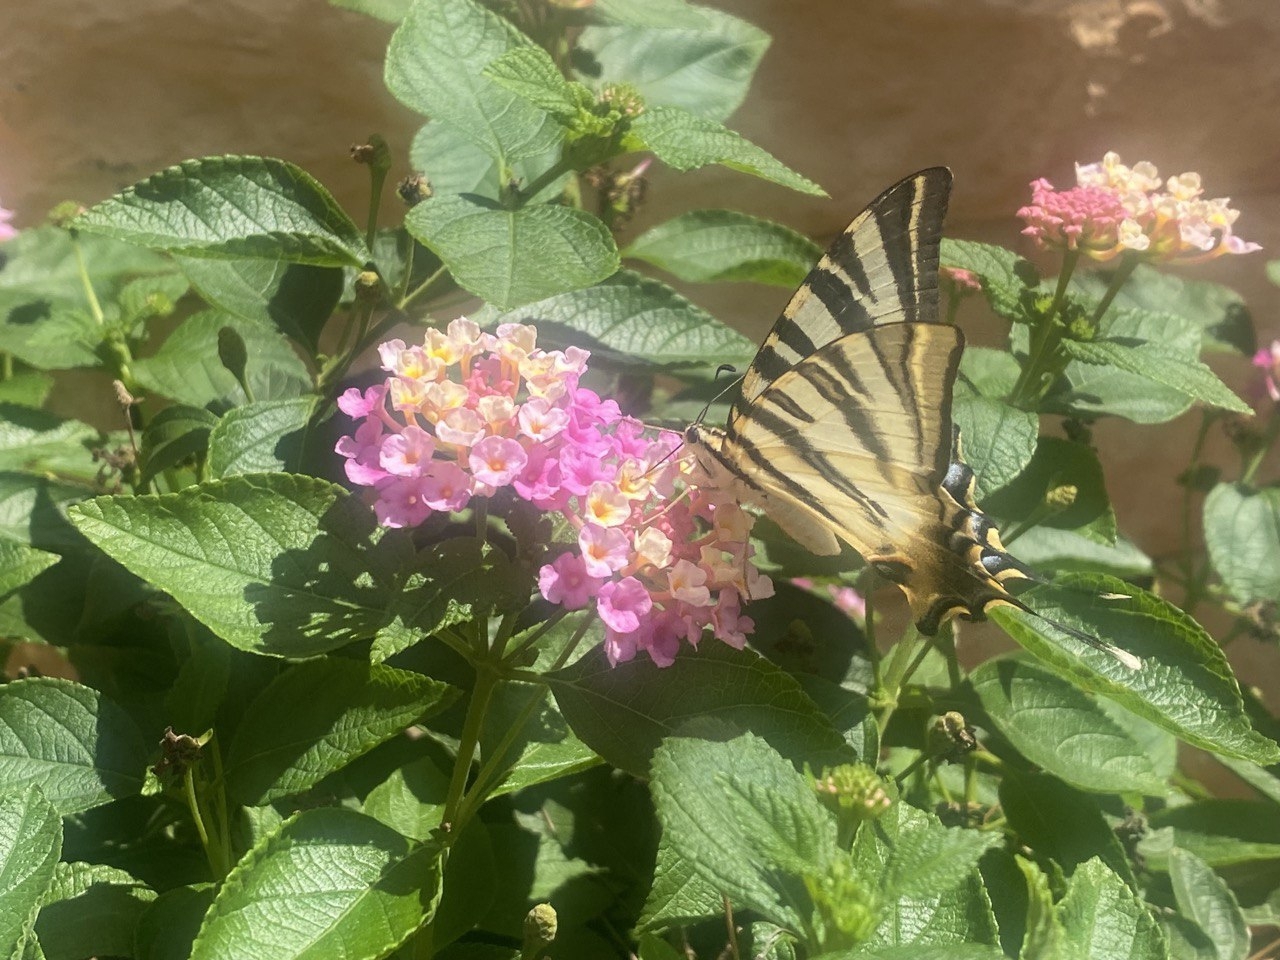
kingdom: Animalia
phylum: Arthropoda
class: Insecta
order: Lepidoptera
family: Papilionidae
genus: Iphiclides
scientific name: Iphiclides feisthamelii
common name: Iberian scarce swallowtail
